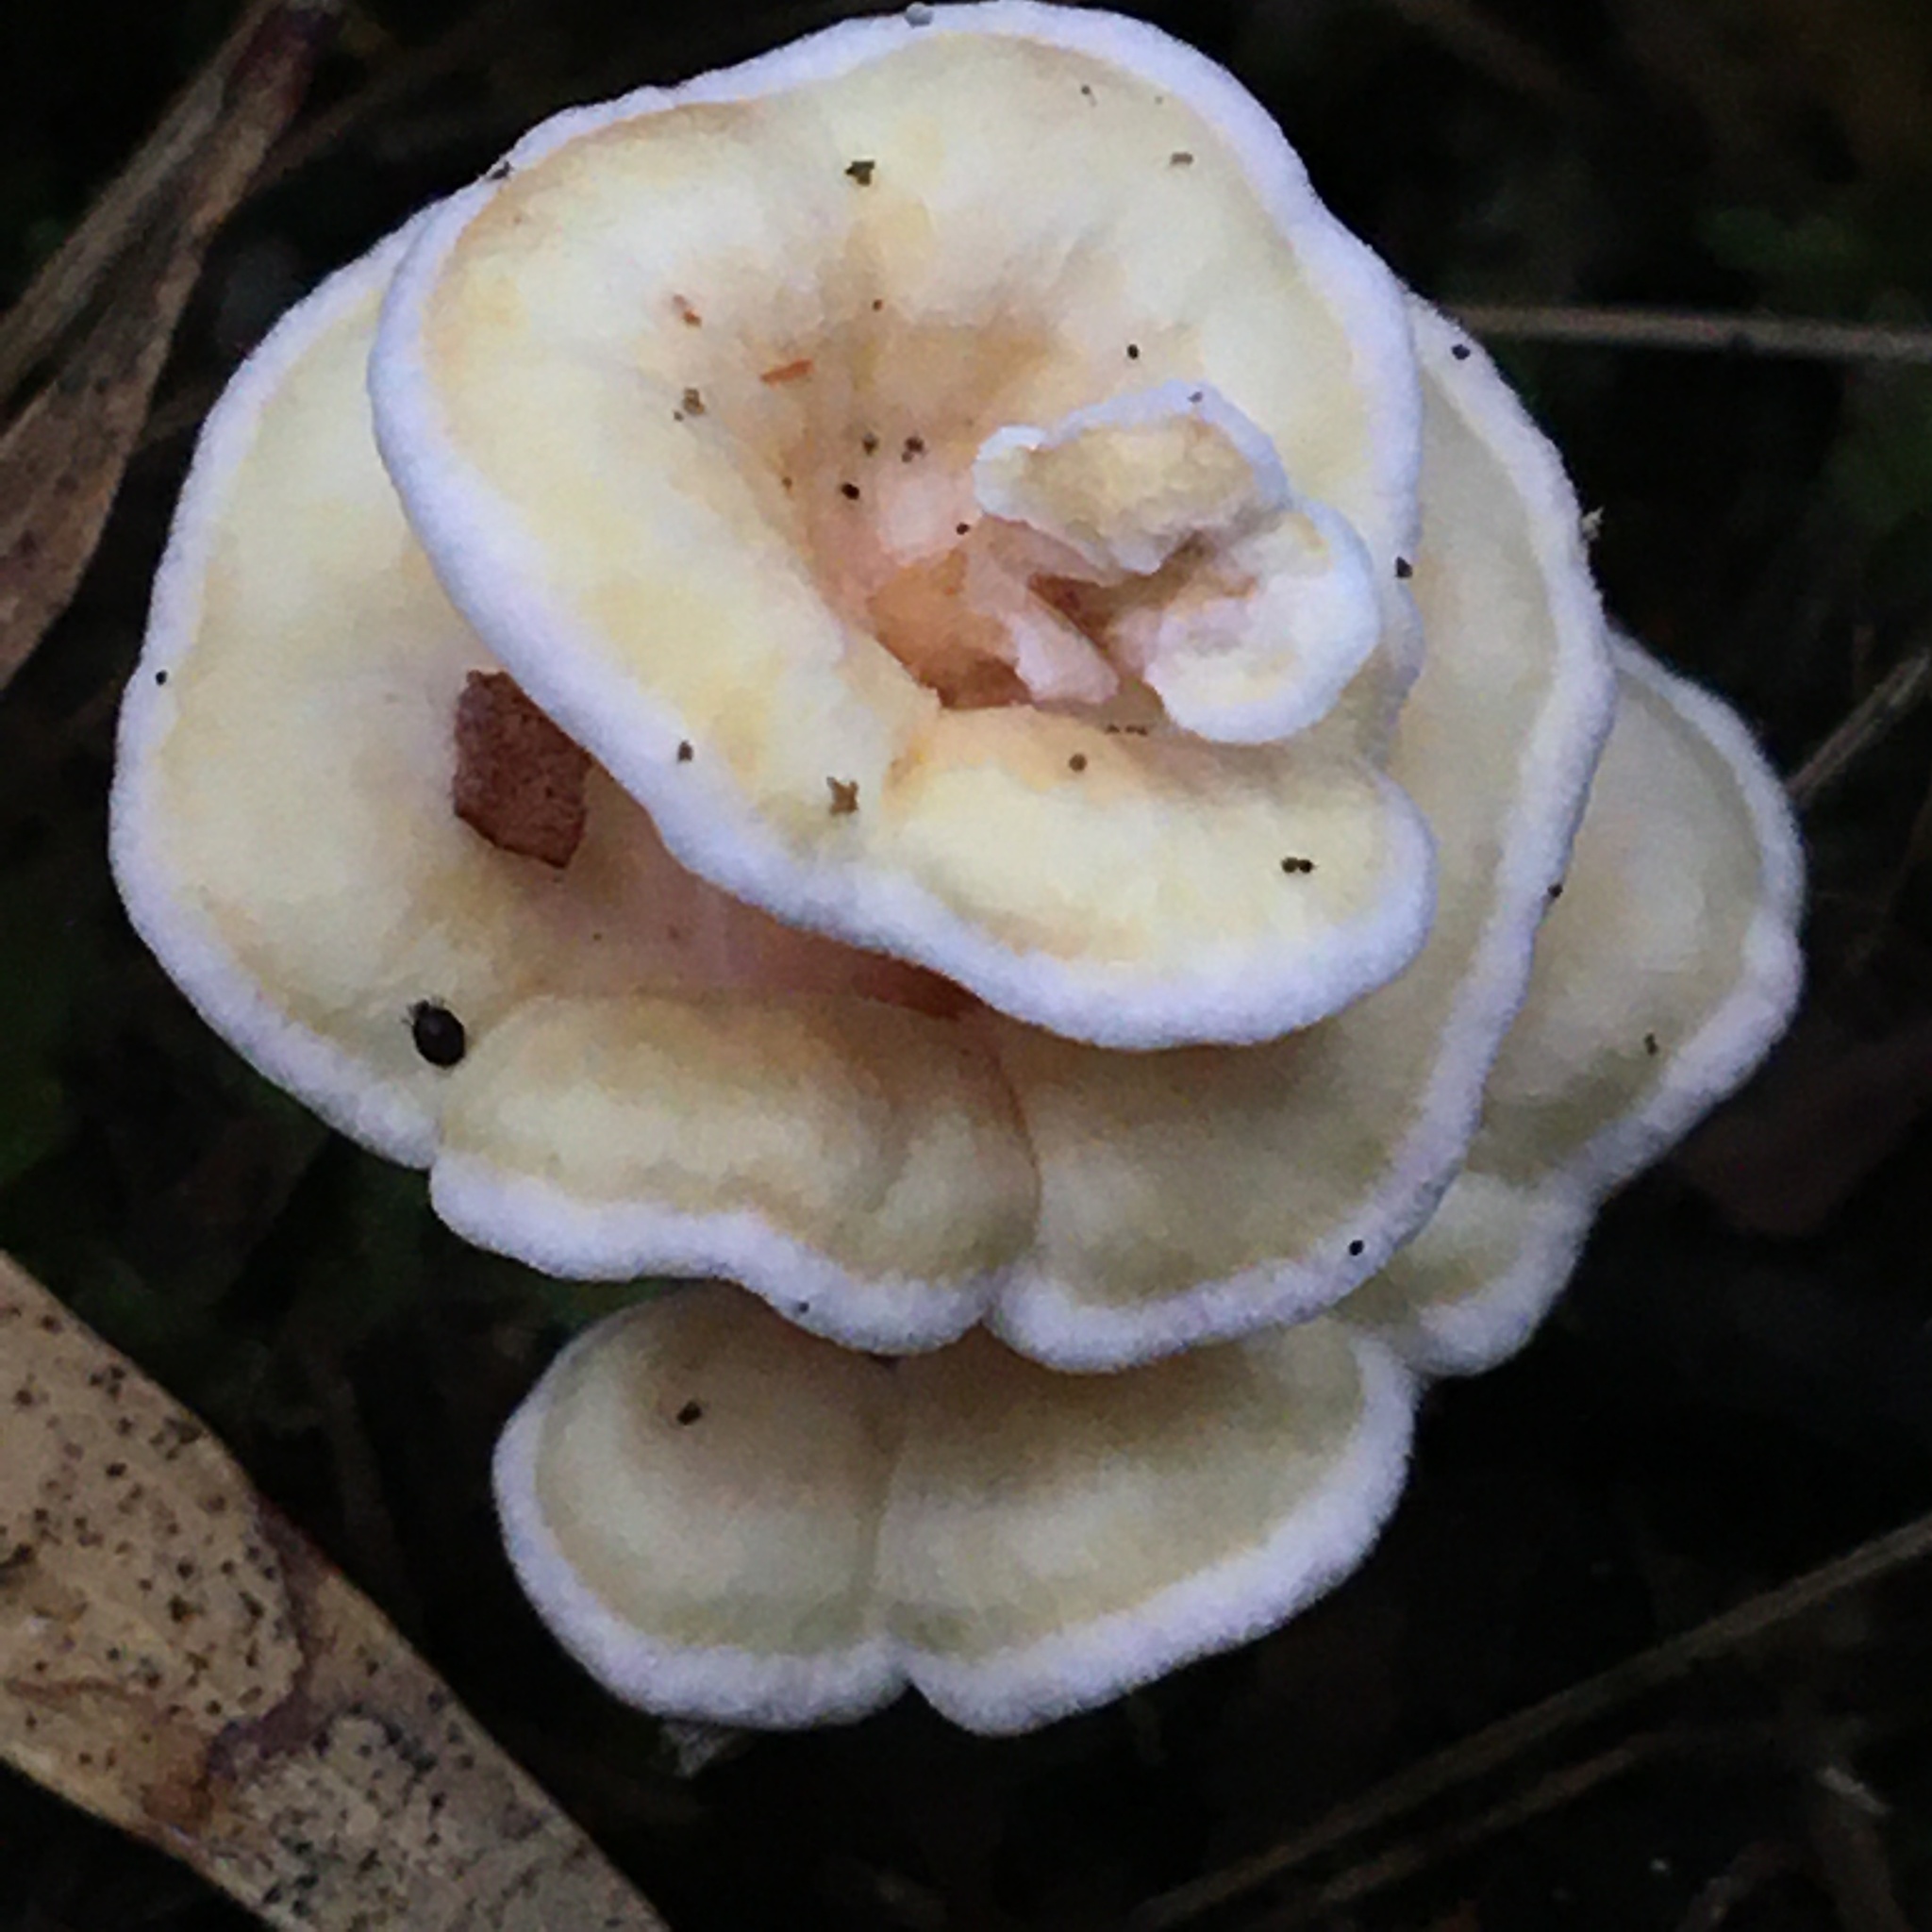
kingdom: Fungi
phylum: Basidiomycota
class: Agaricomycetes
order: Amylocorticiales
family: Amylocorticiaceae
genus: Podoserpula
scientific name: Podoserpula pusio
